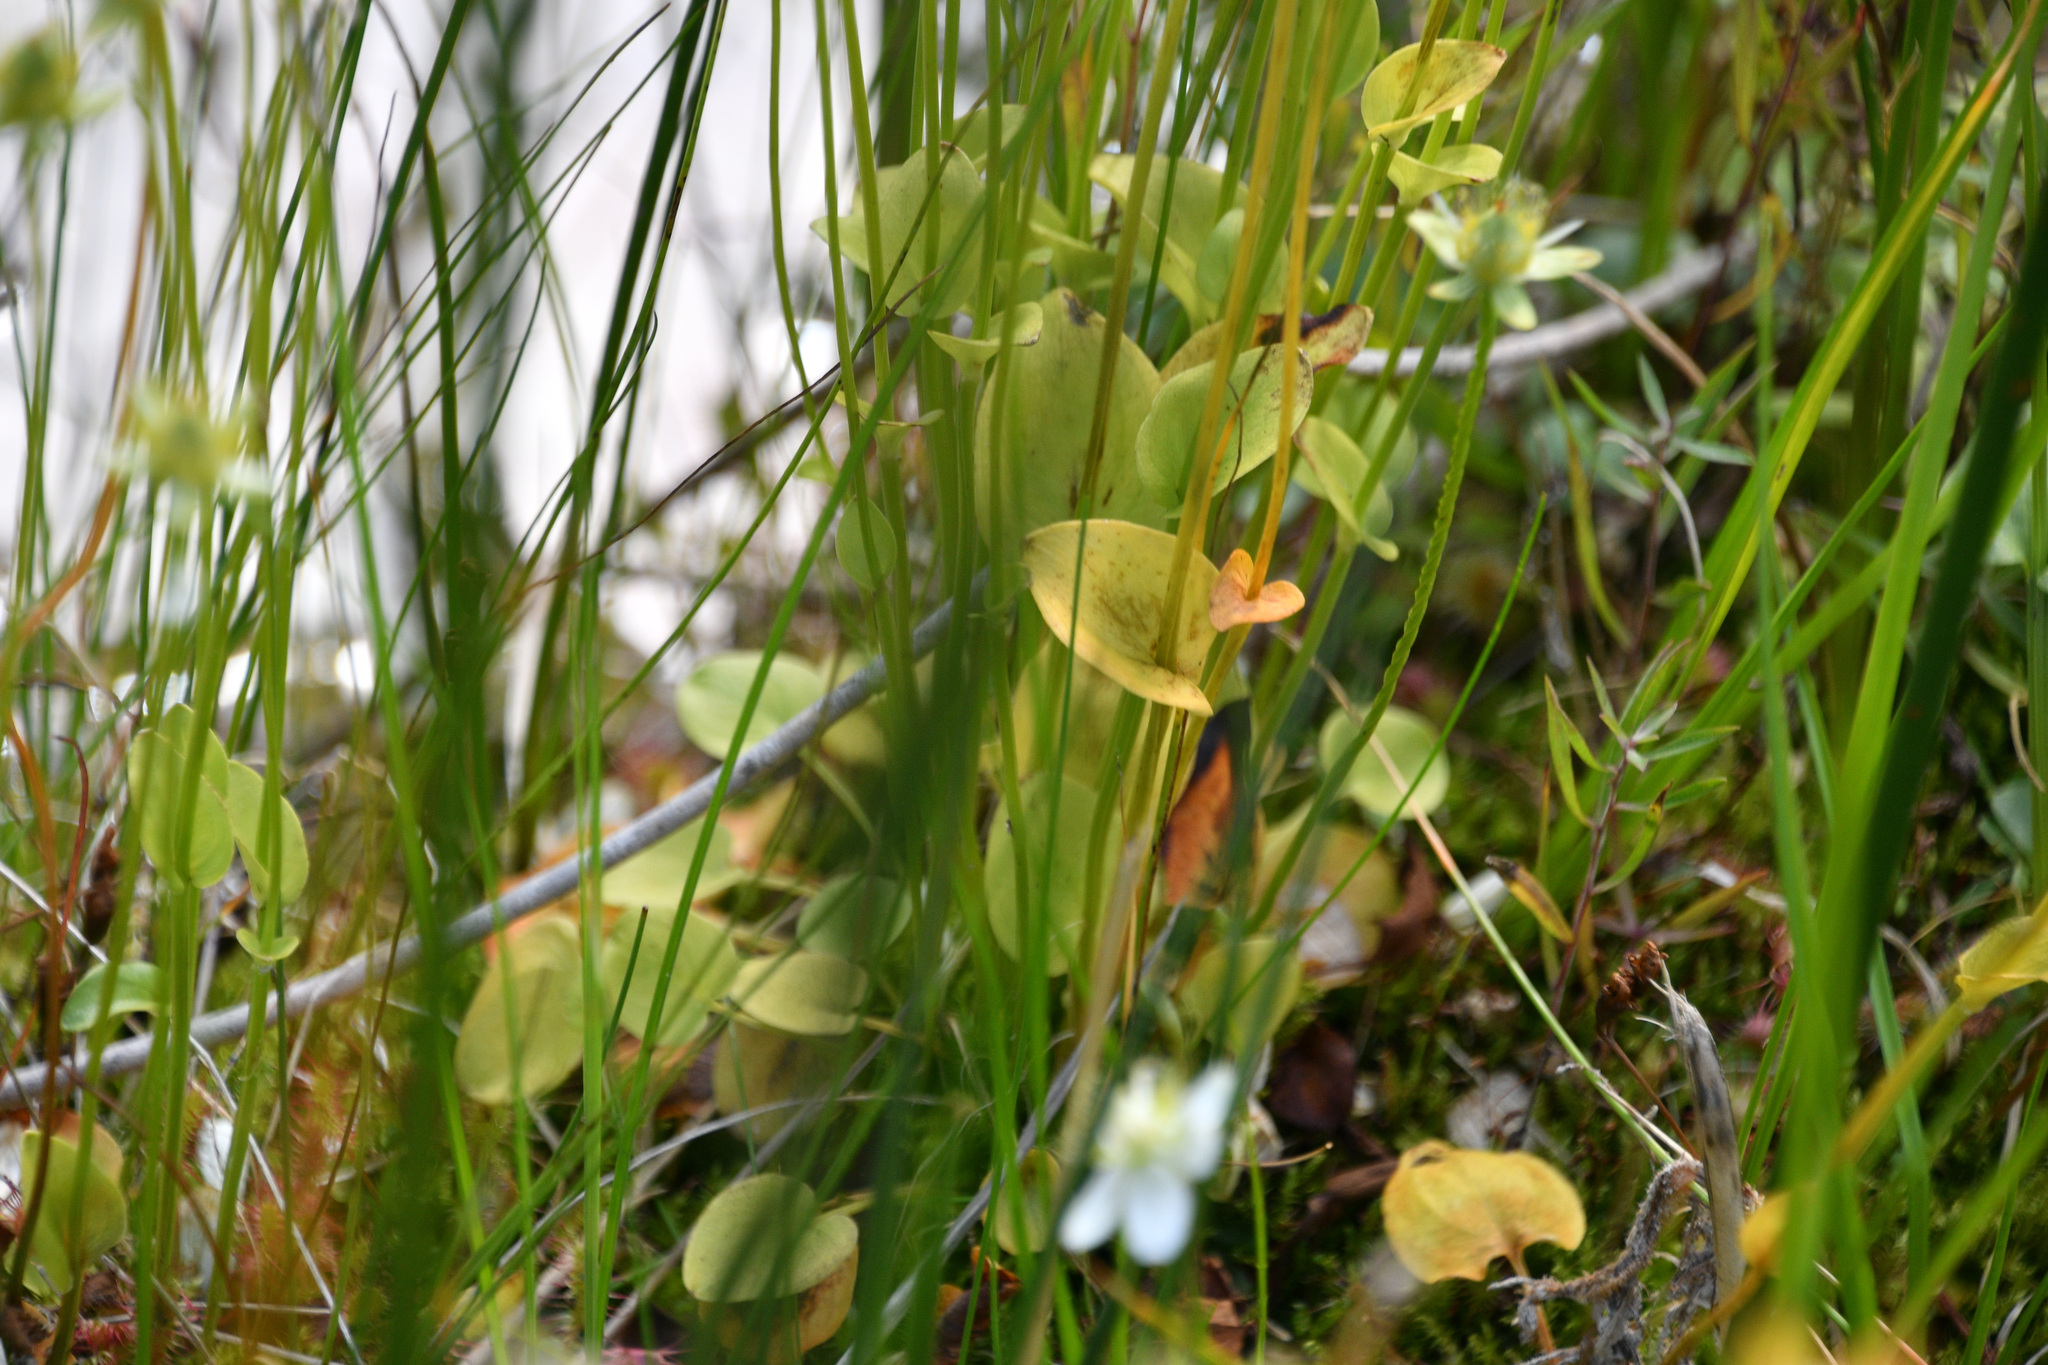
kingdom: Plantae
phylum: Tracheophyta
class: Magnoliopsida
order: Celastrales
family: Parnassiaceae
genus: Parnassia
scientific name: Parnassia palustris
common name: Grass-of-parnassus
